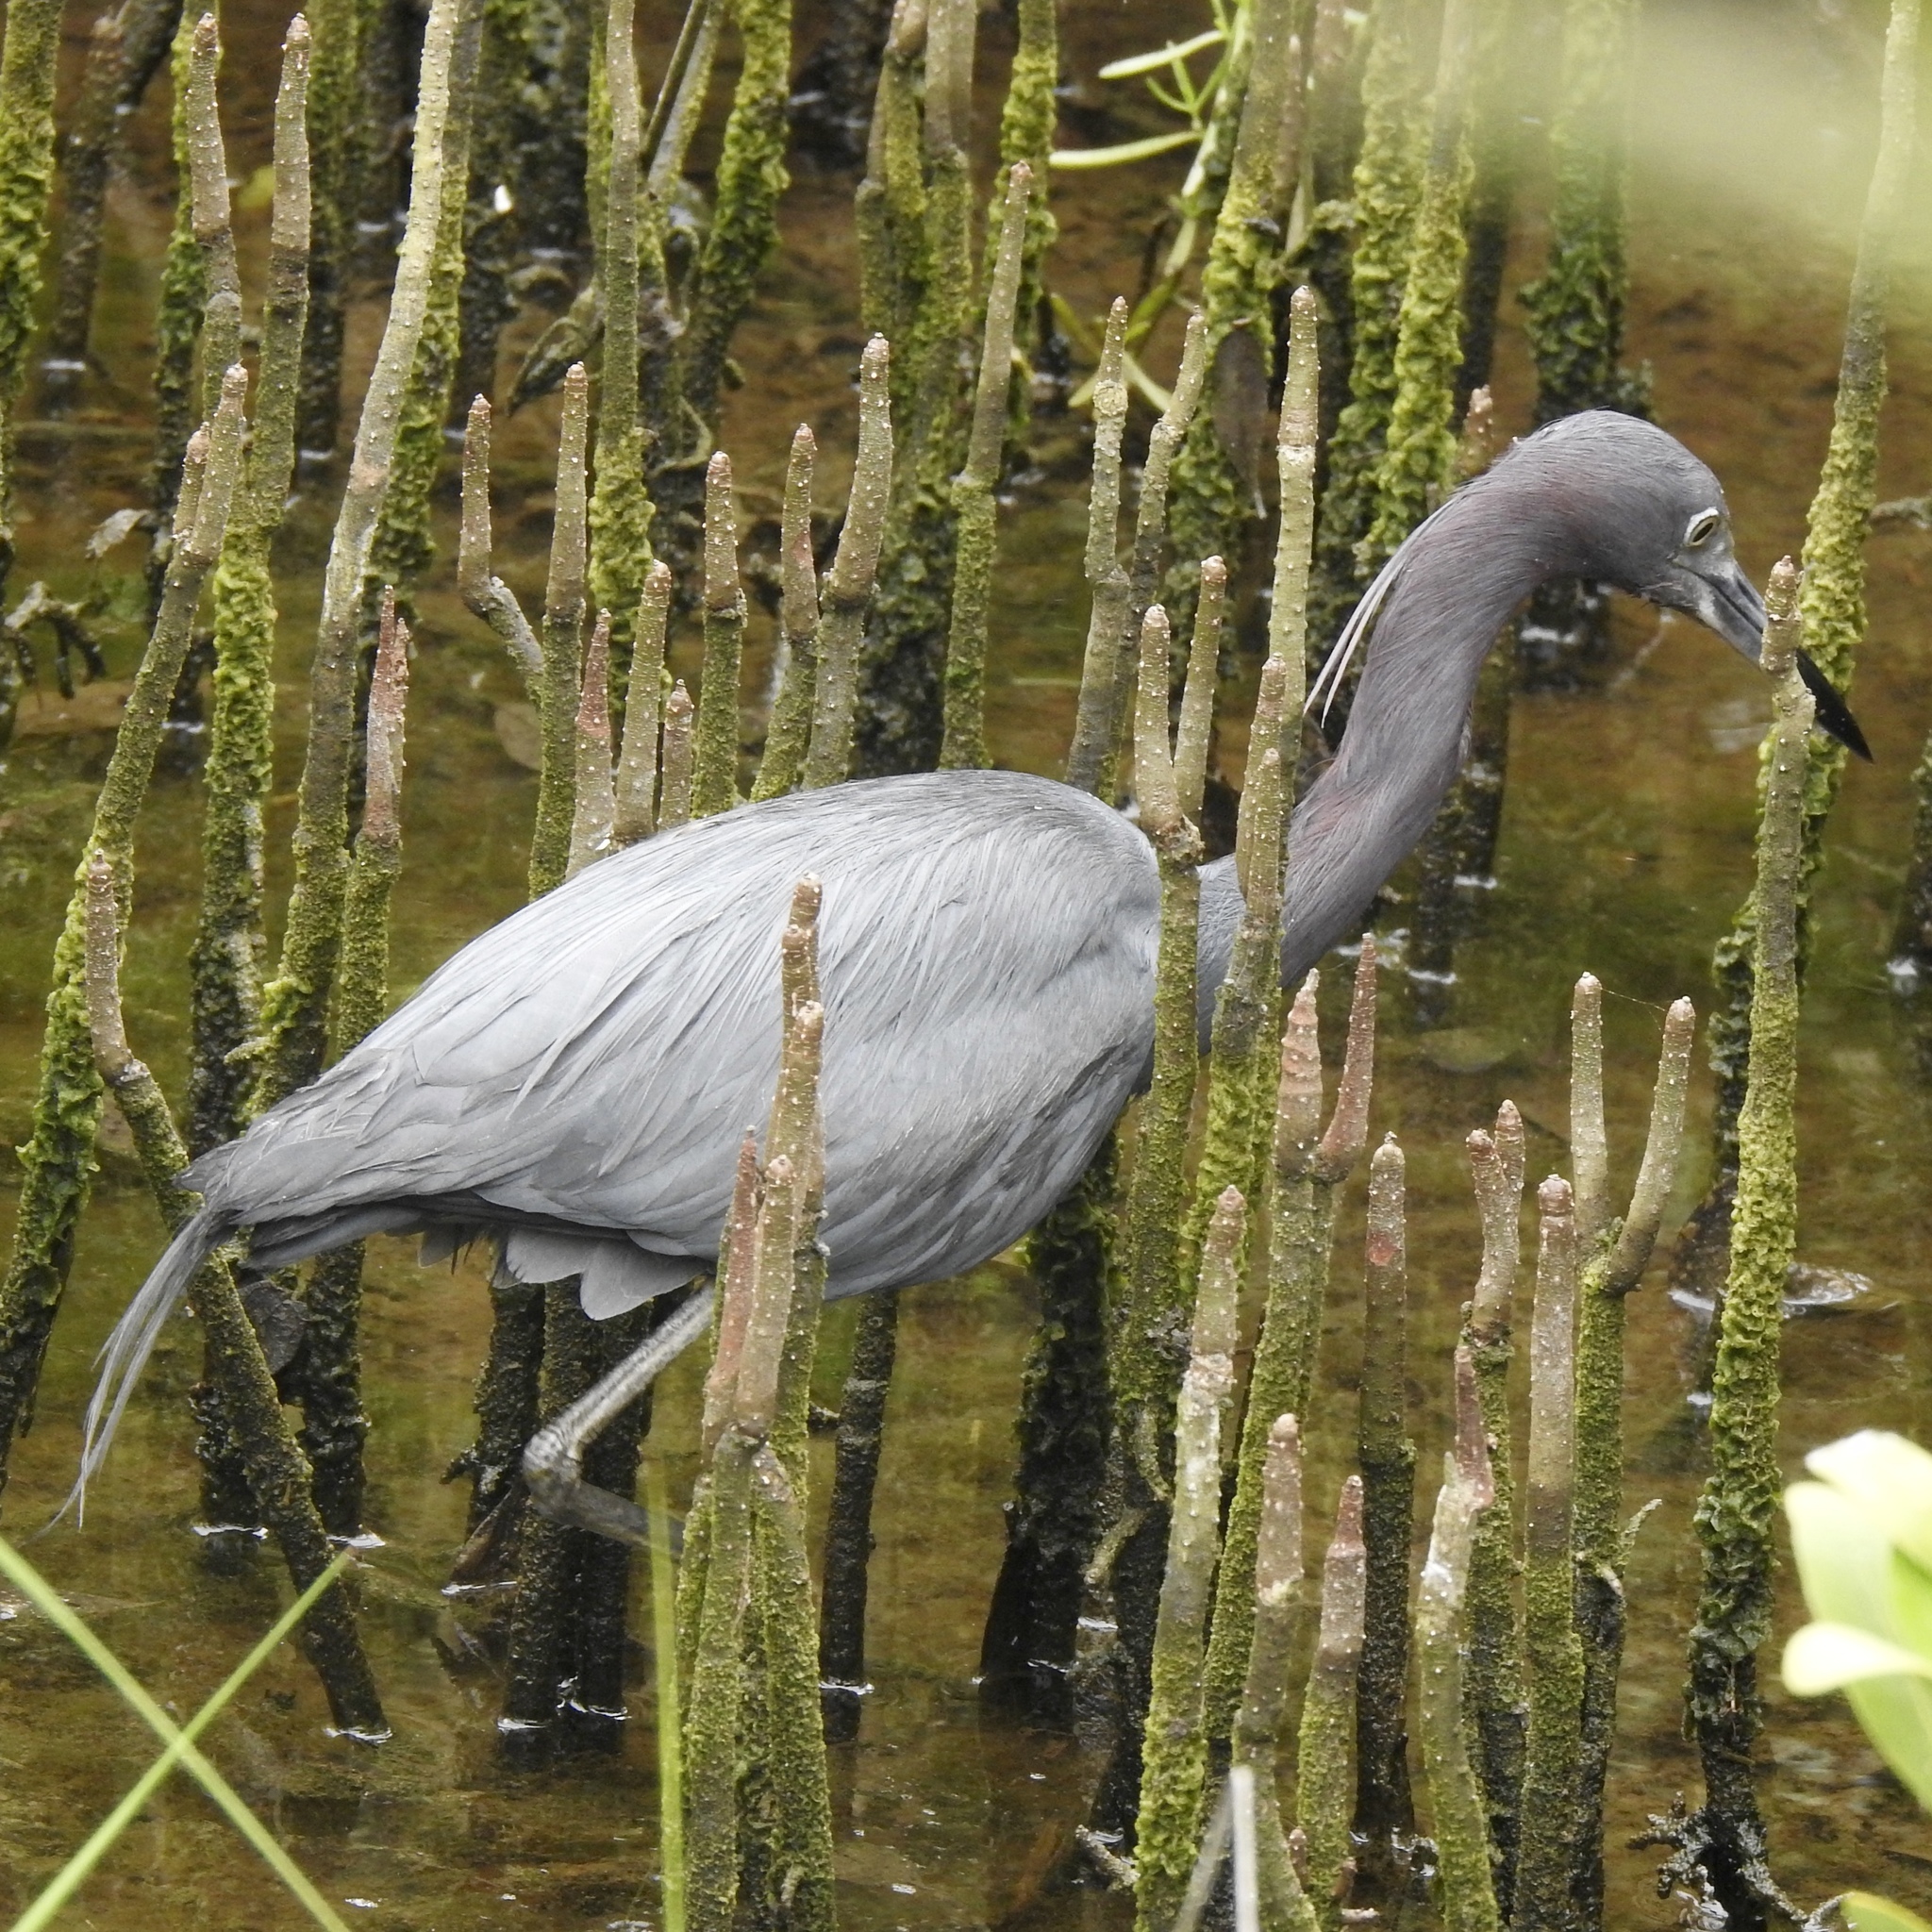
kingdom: Animalia
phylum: Chordata
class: Aves
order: Pelecaniformes
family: Ardeidae
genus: Egretta
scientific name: Egretta caerulea
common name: Little blue heron
